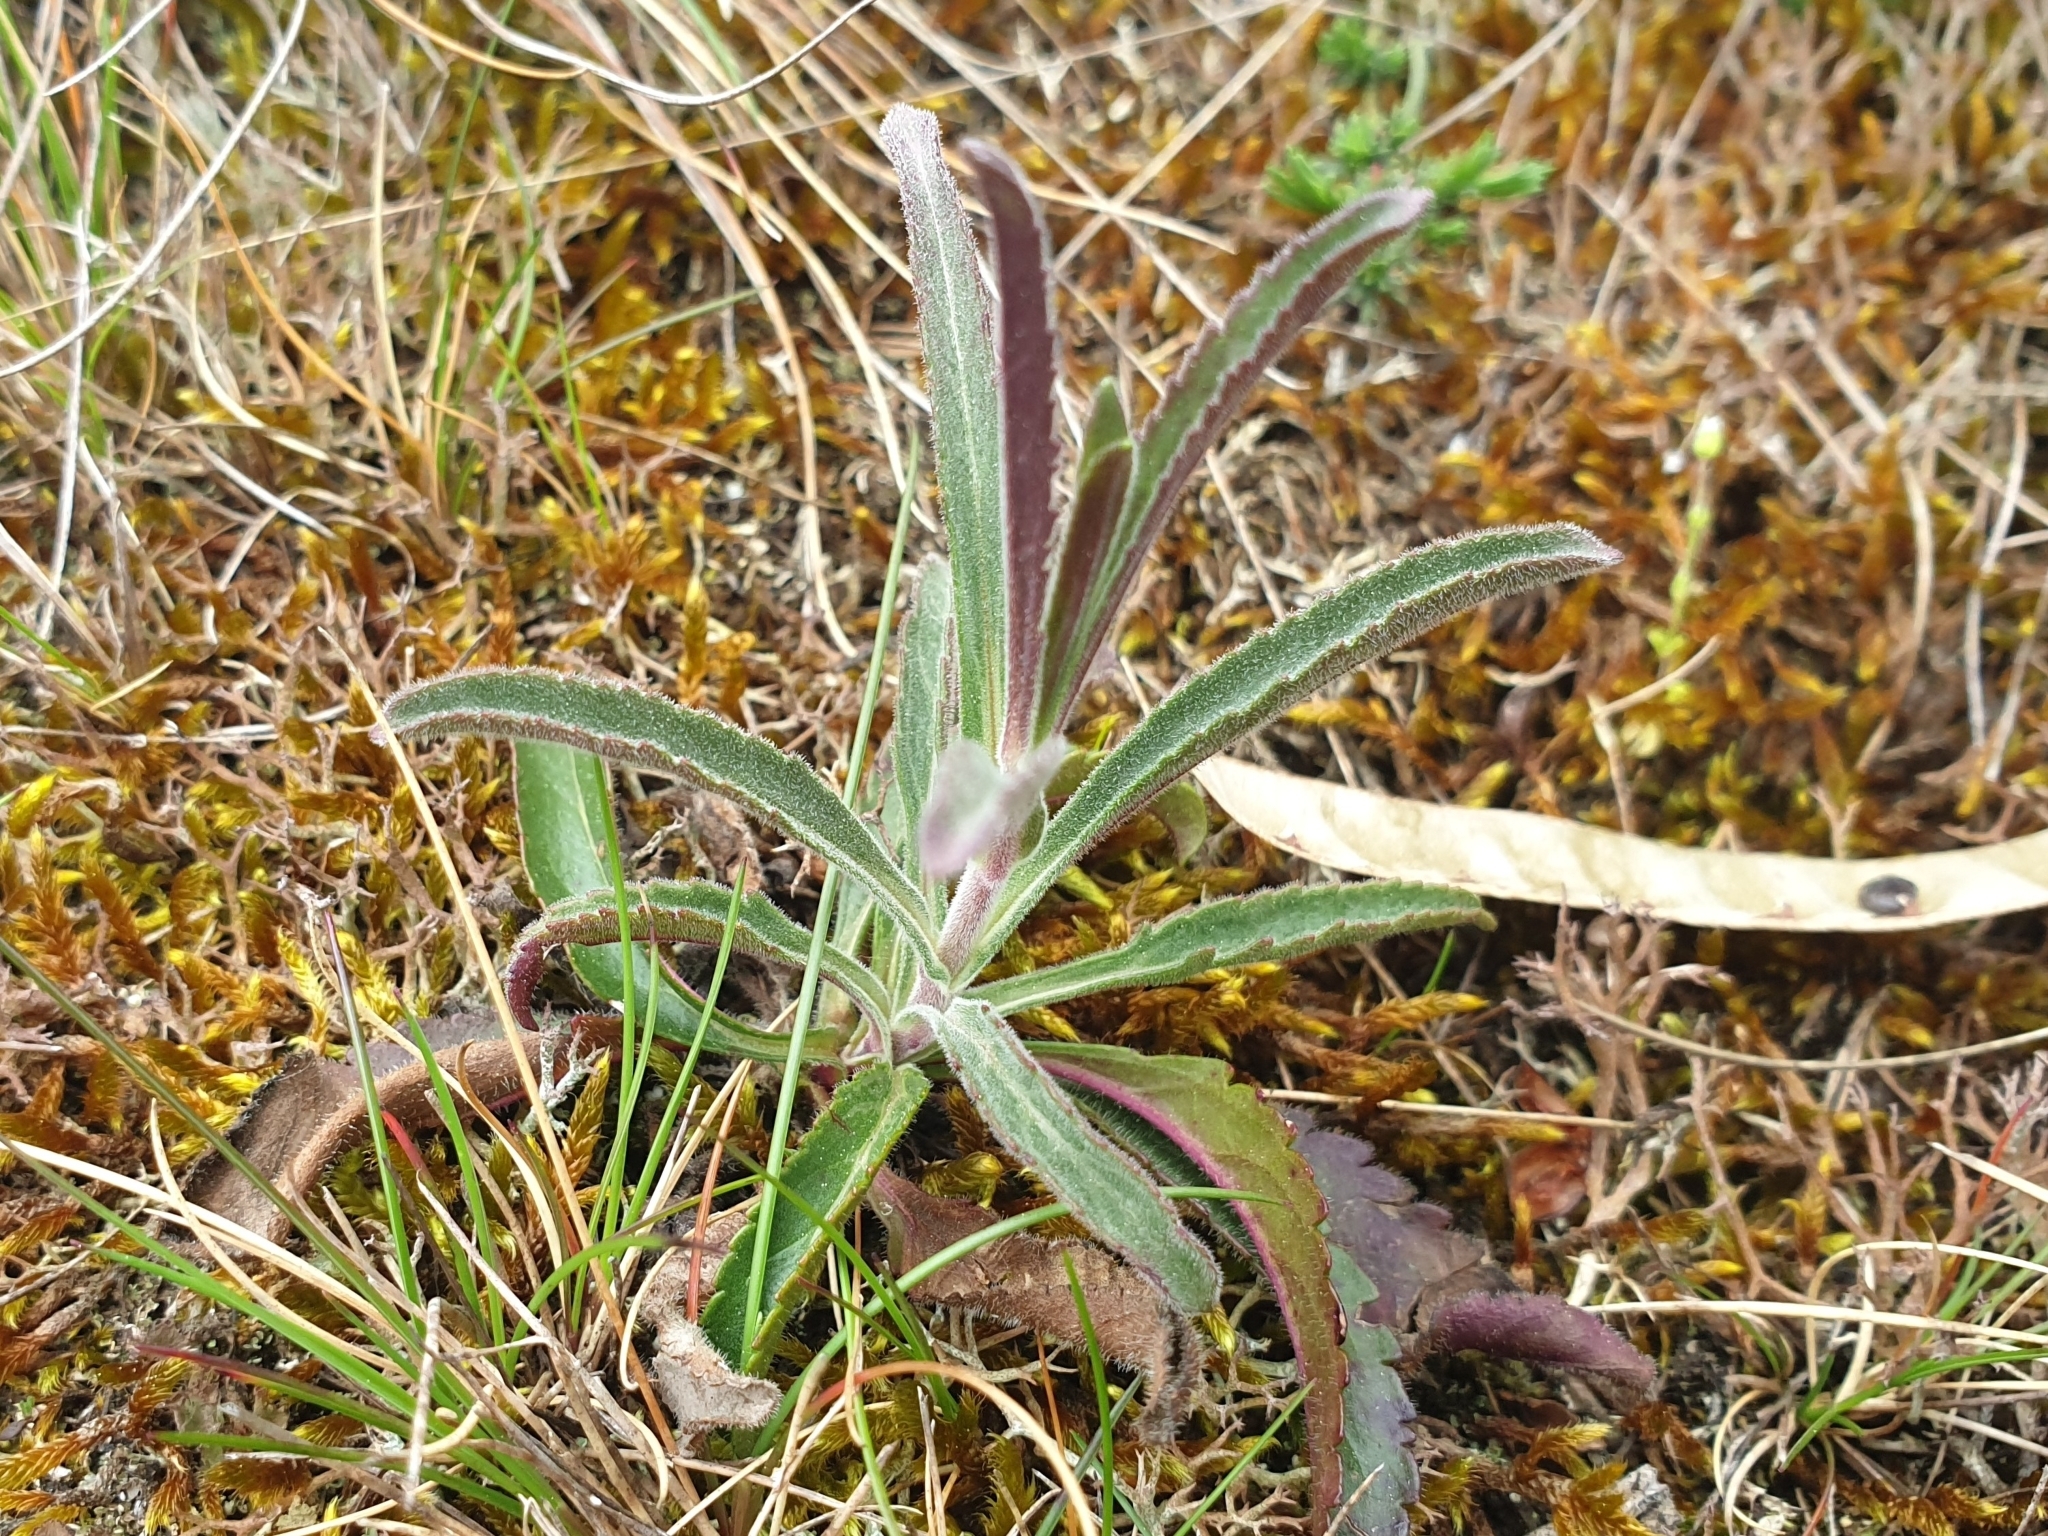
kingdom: Plantae
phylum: Tracheophyta
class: Magnoliopsida
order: Lamiales
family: Plantaginaceae
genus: Veronica
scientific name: Veronica spicata
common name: Spiked speedwell
